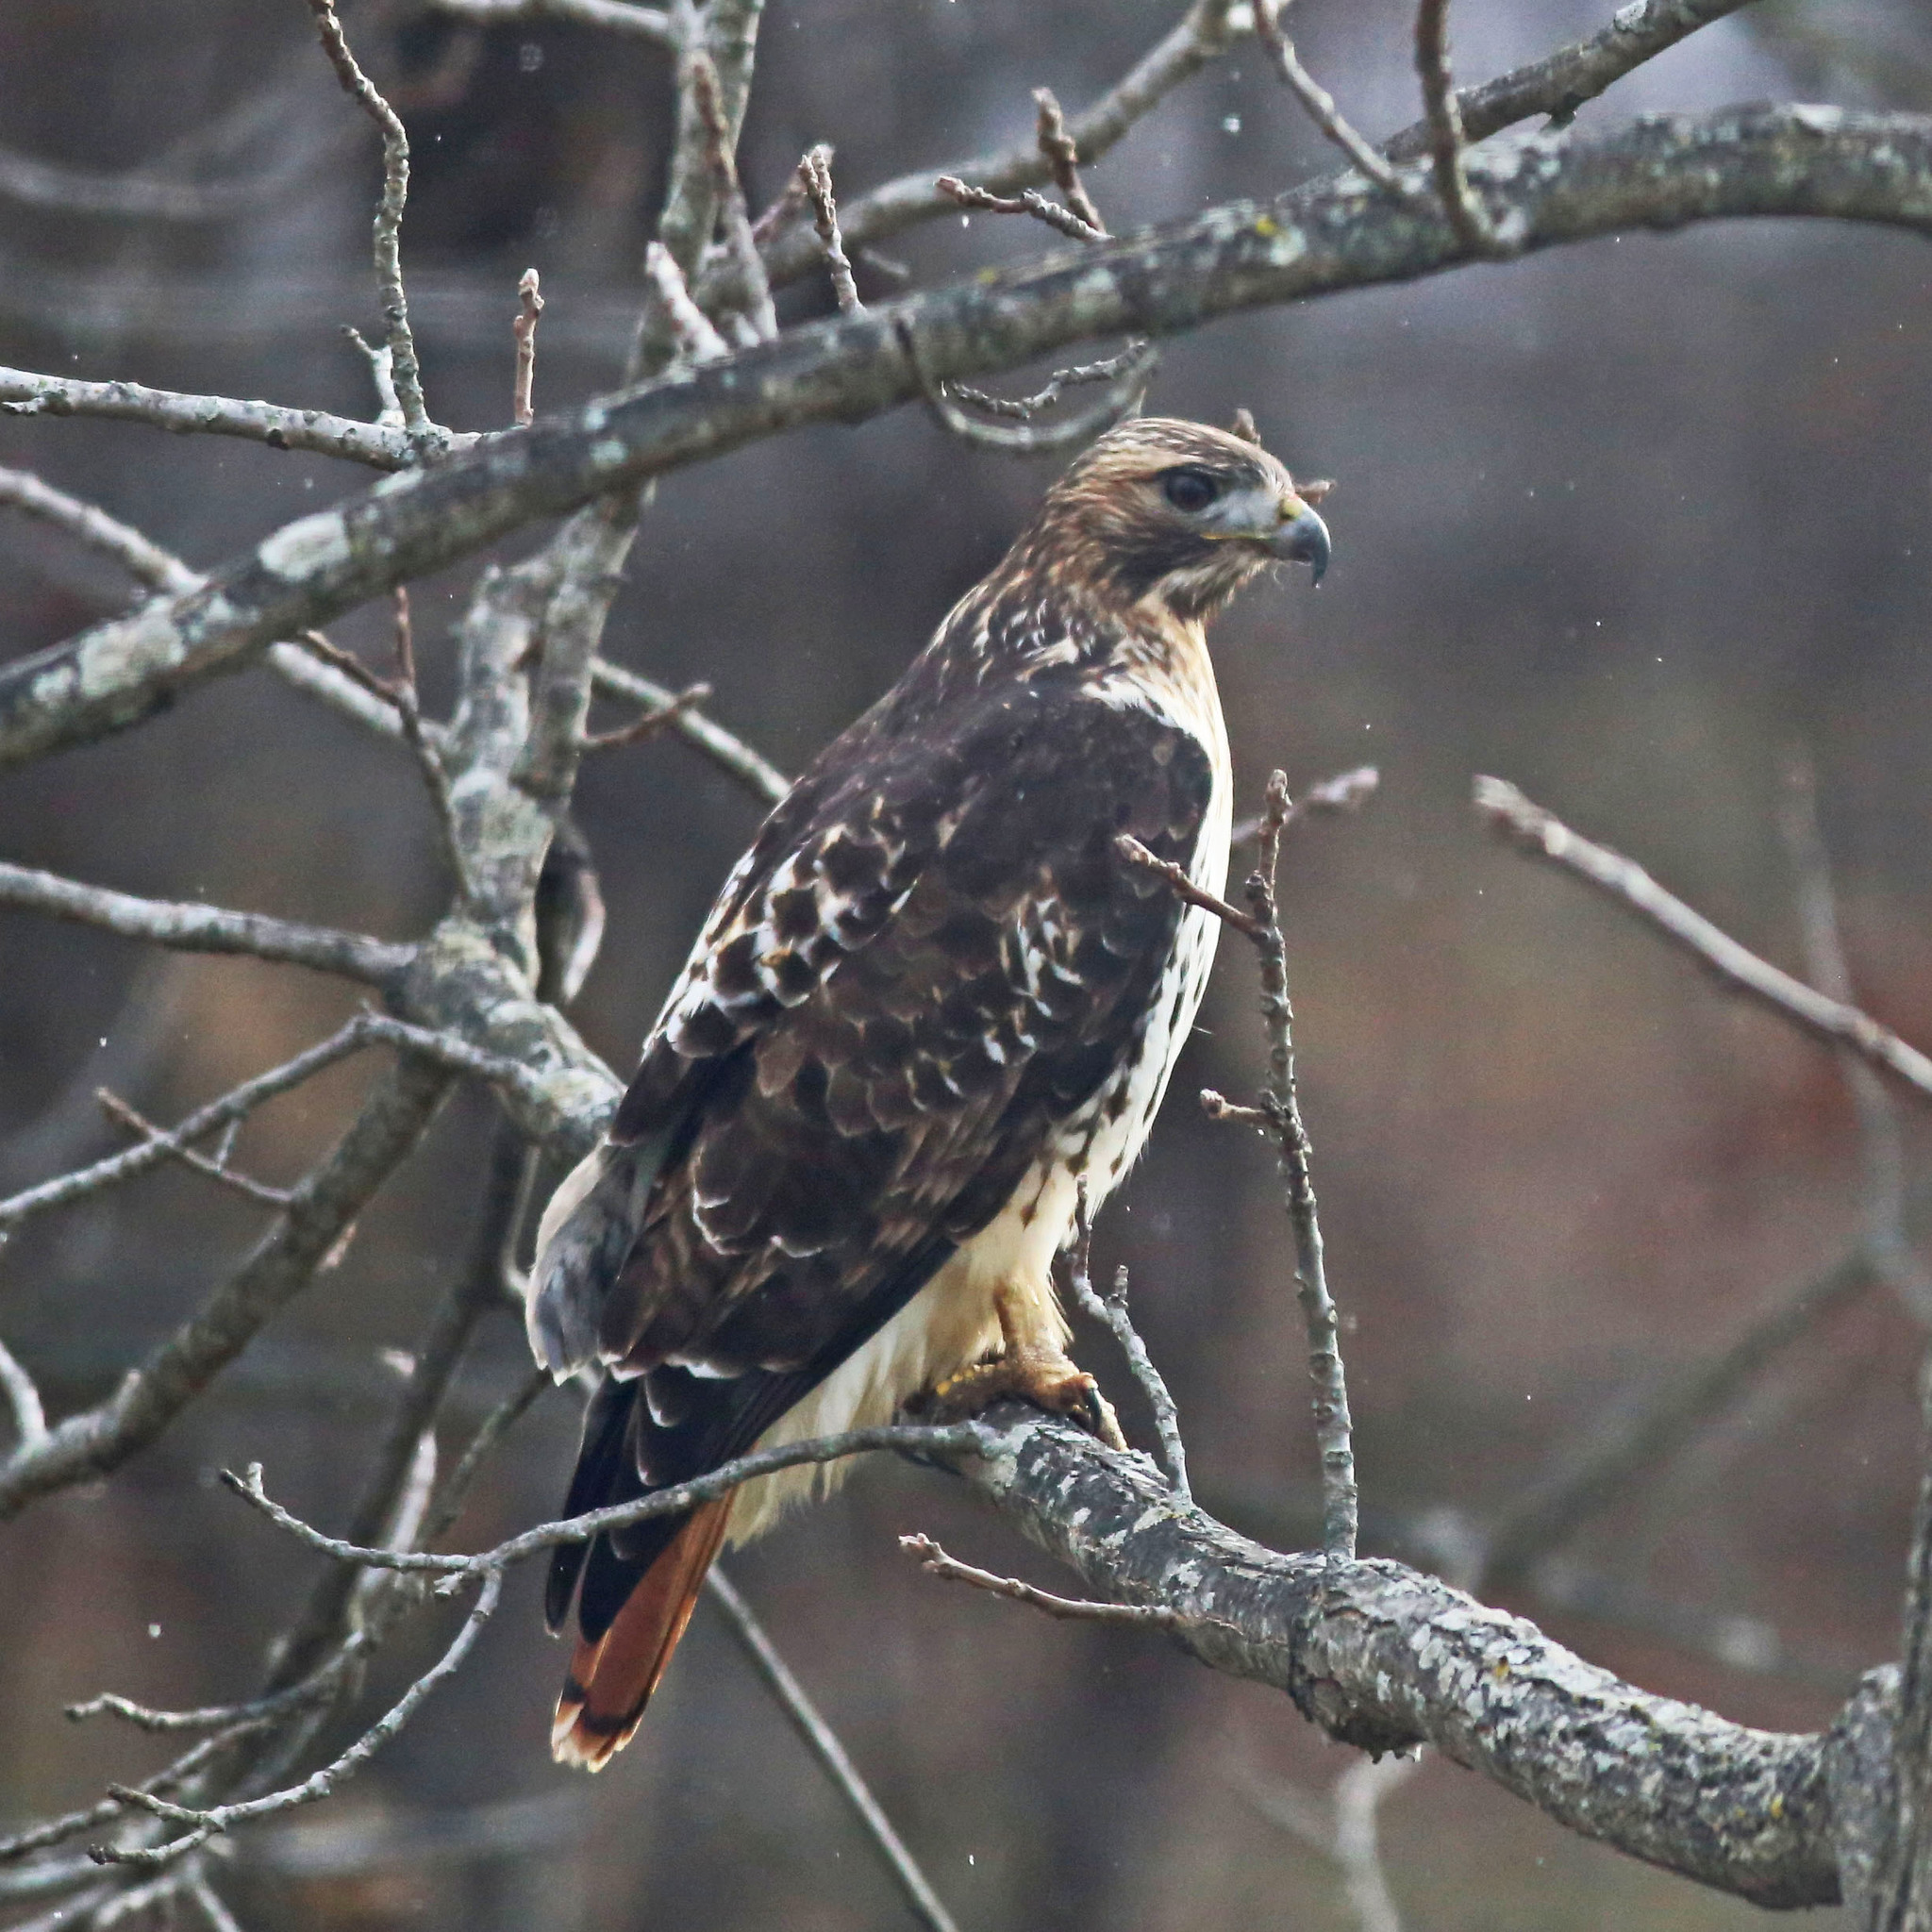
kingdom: Animalia
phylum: Chordata
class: Aves
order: Accipitriformes
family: Accipitridae
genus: Buteo
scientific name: Buteo jamaicensis
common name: Red-tailed hawk
